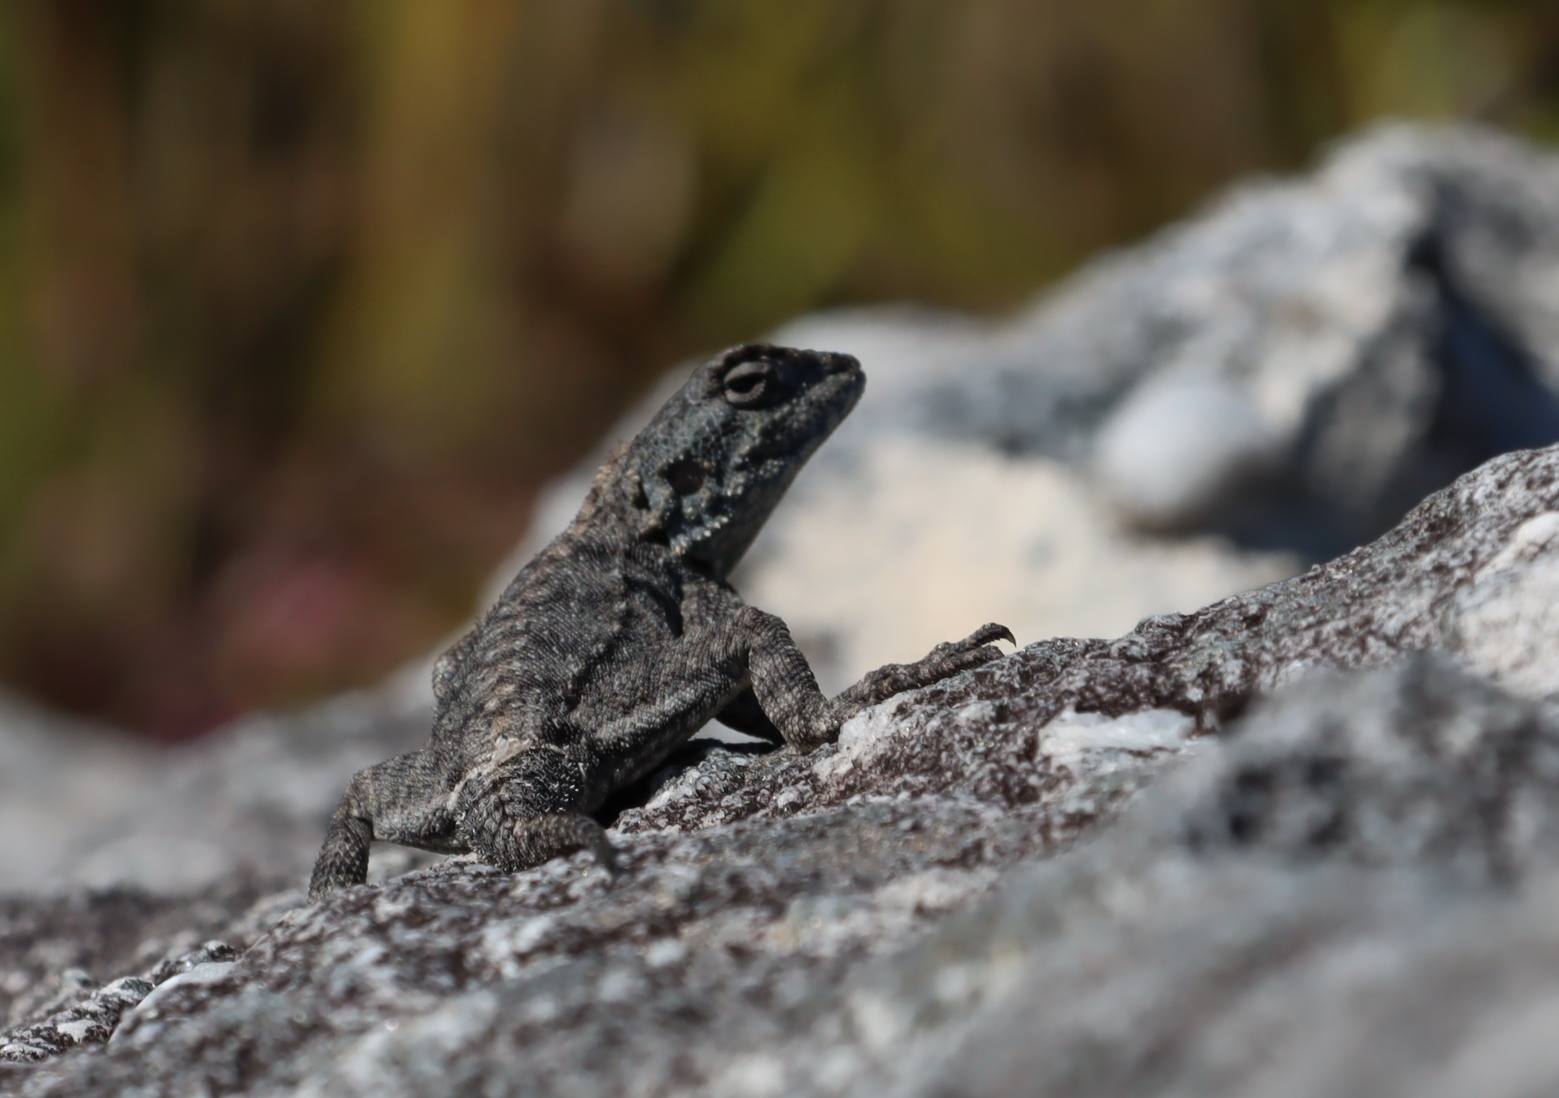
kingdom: Animalia
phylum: Chordata
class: Squamata
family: Agamidae
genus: Agama
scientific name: Agama atra
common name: Southern african rock agama
